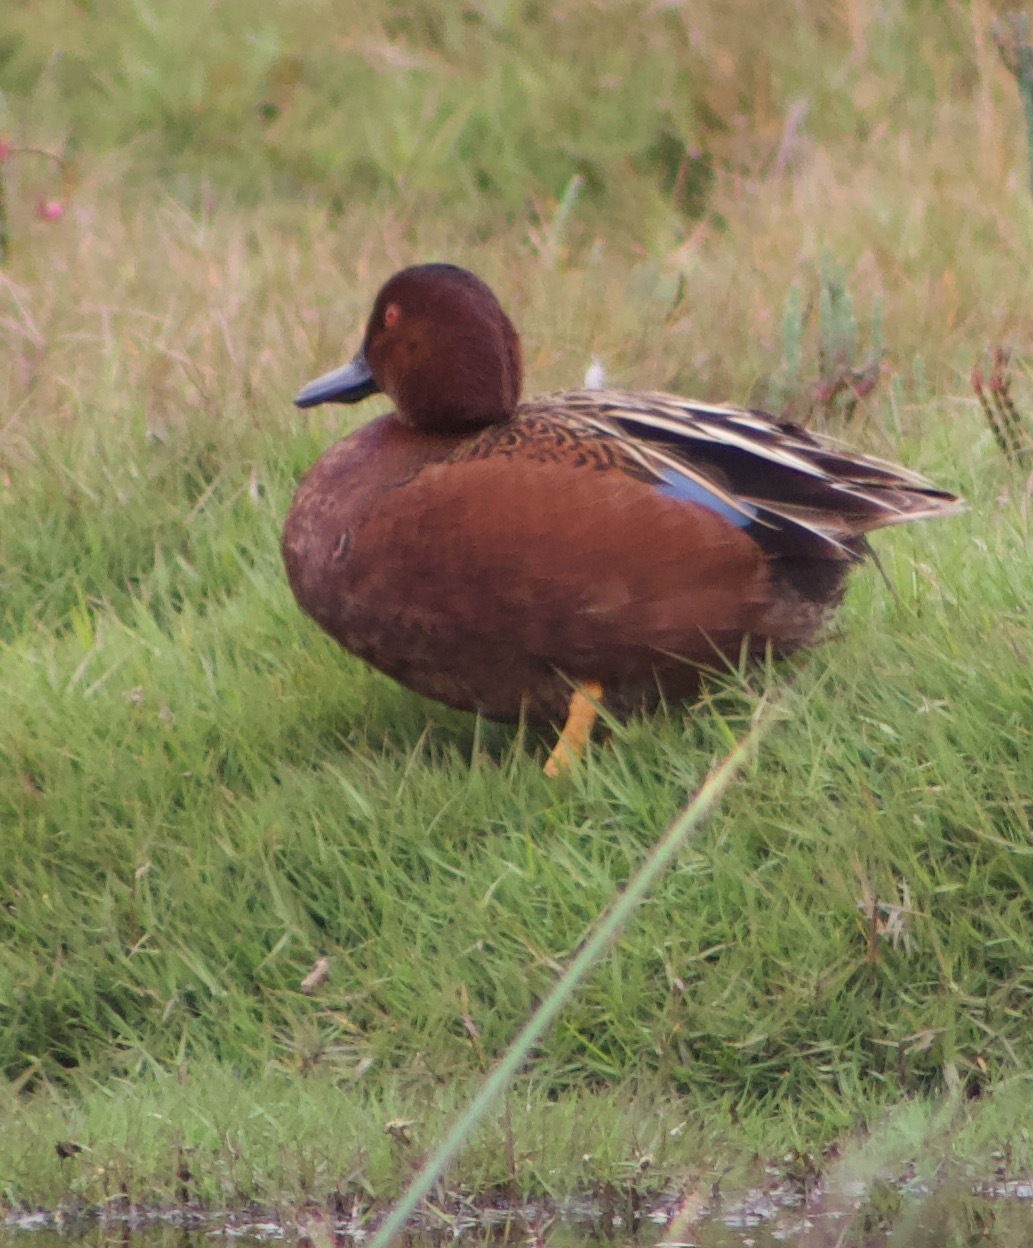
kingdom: Animalia
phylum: Chordata
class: Aves
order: Anseriformes
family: Anatidae
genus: Spatula
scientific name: Spatula cyanoptera
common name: Cinnamon teal
